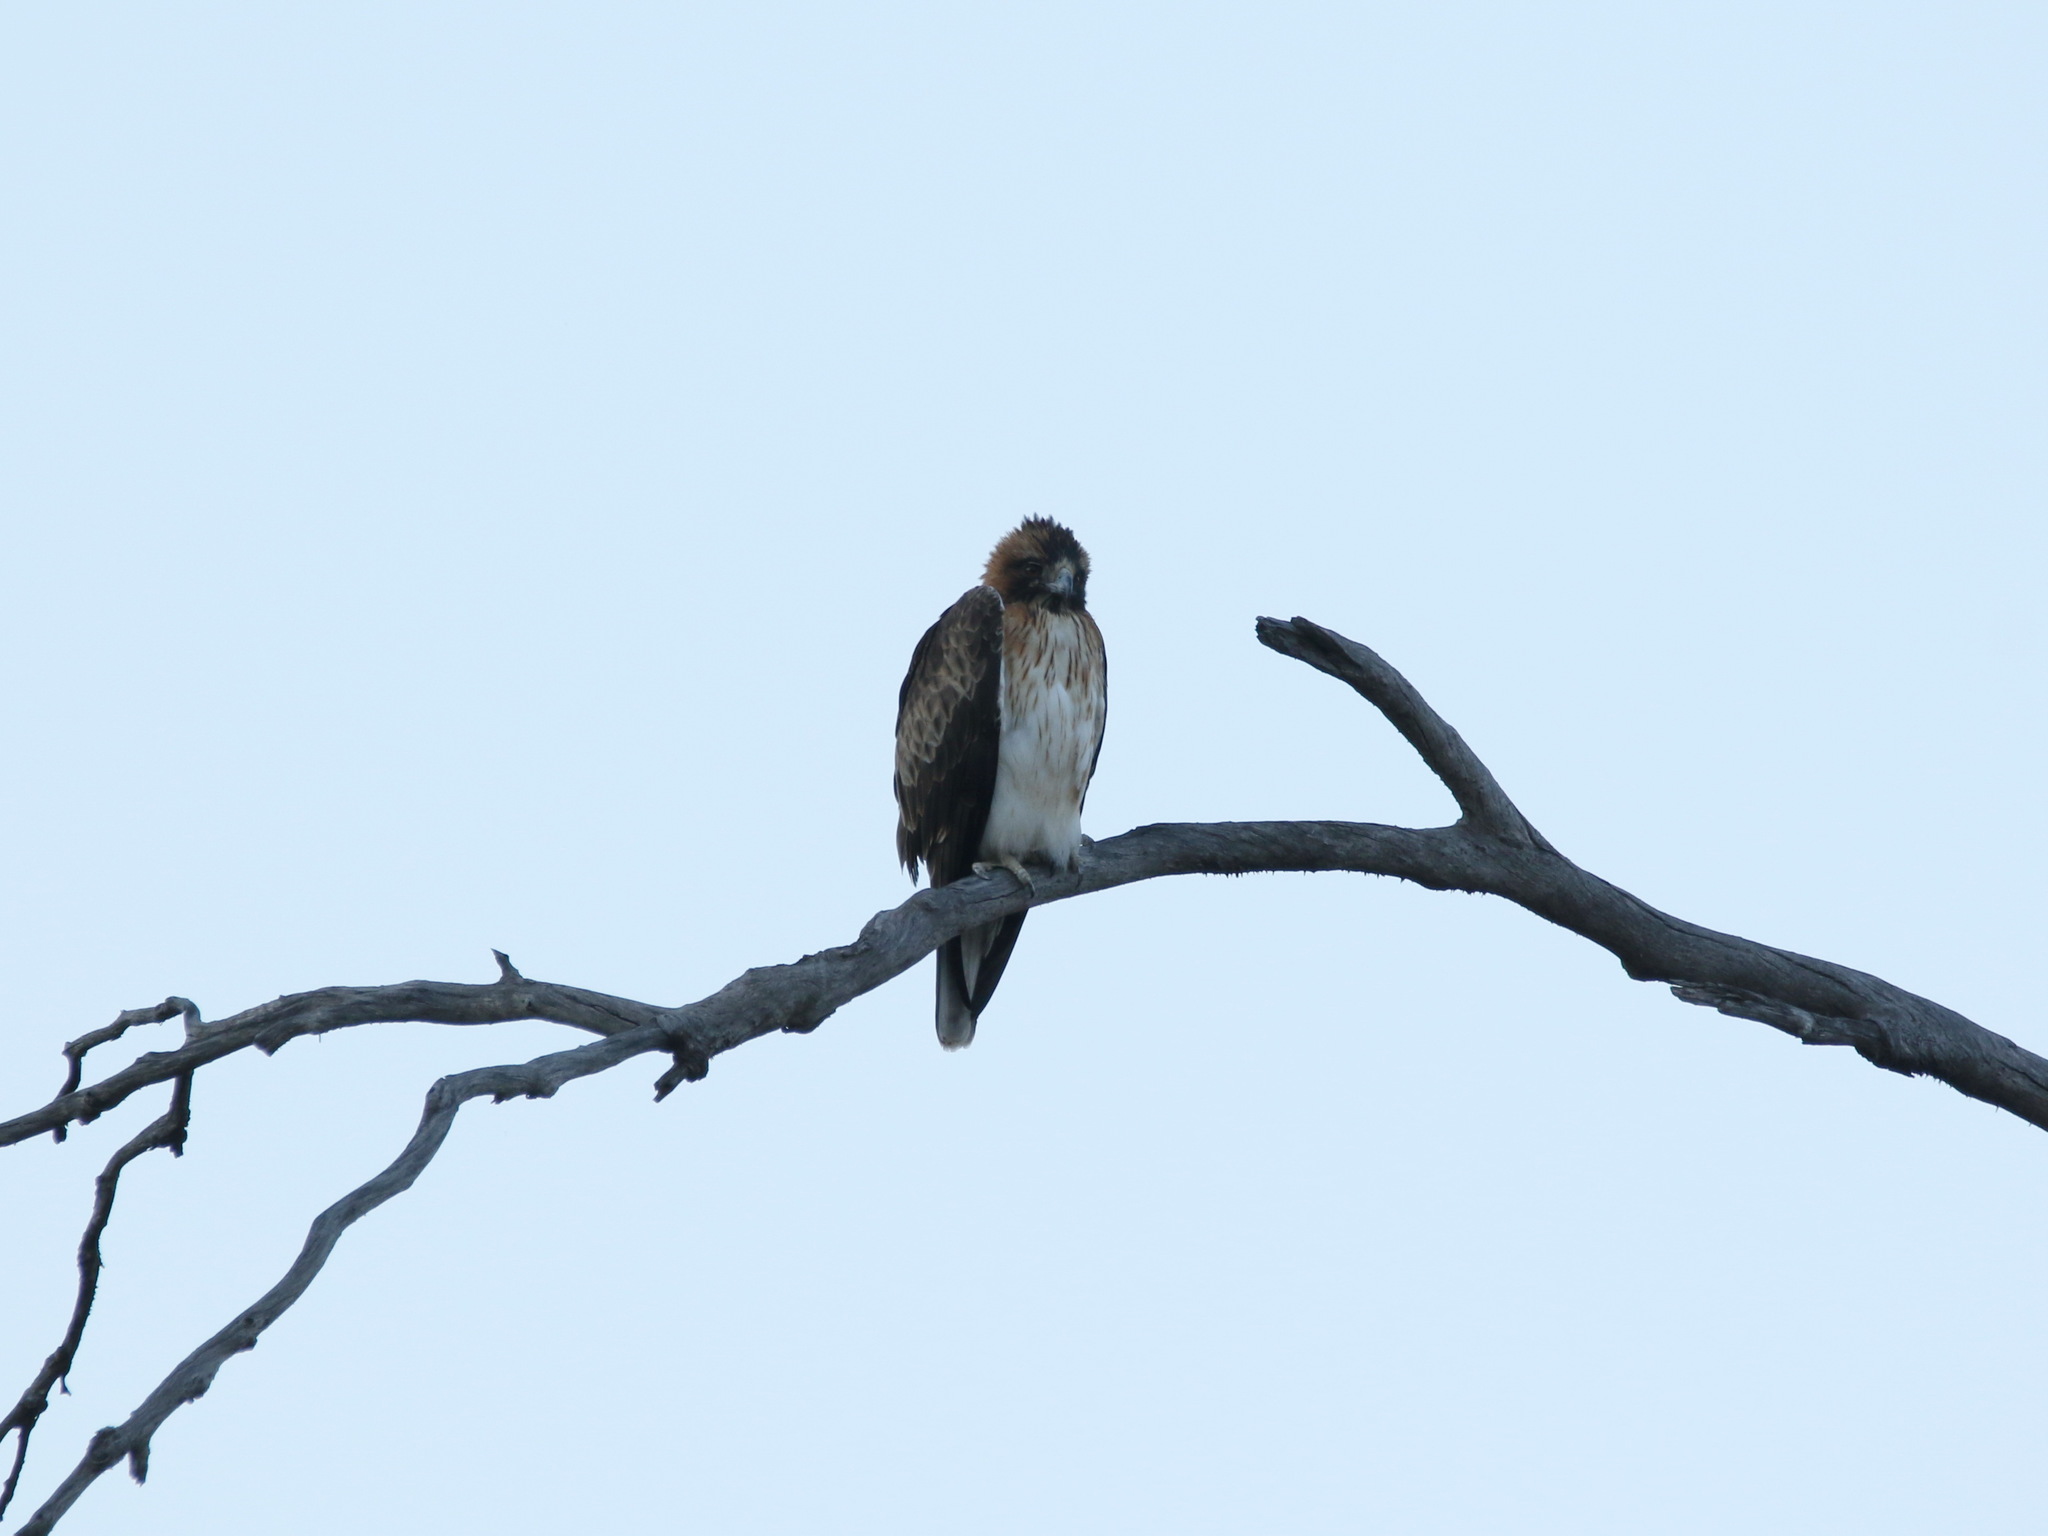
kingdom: Animalia
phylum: Chordata
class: Aves
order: Accipitriformes
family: Accipitridae
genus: Hieraaetus
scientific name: Hieraaetus morphnoides
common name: Little eagle
